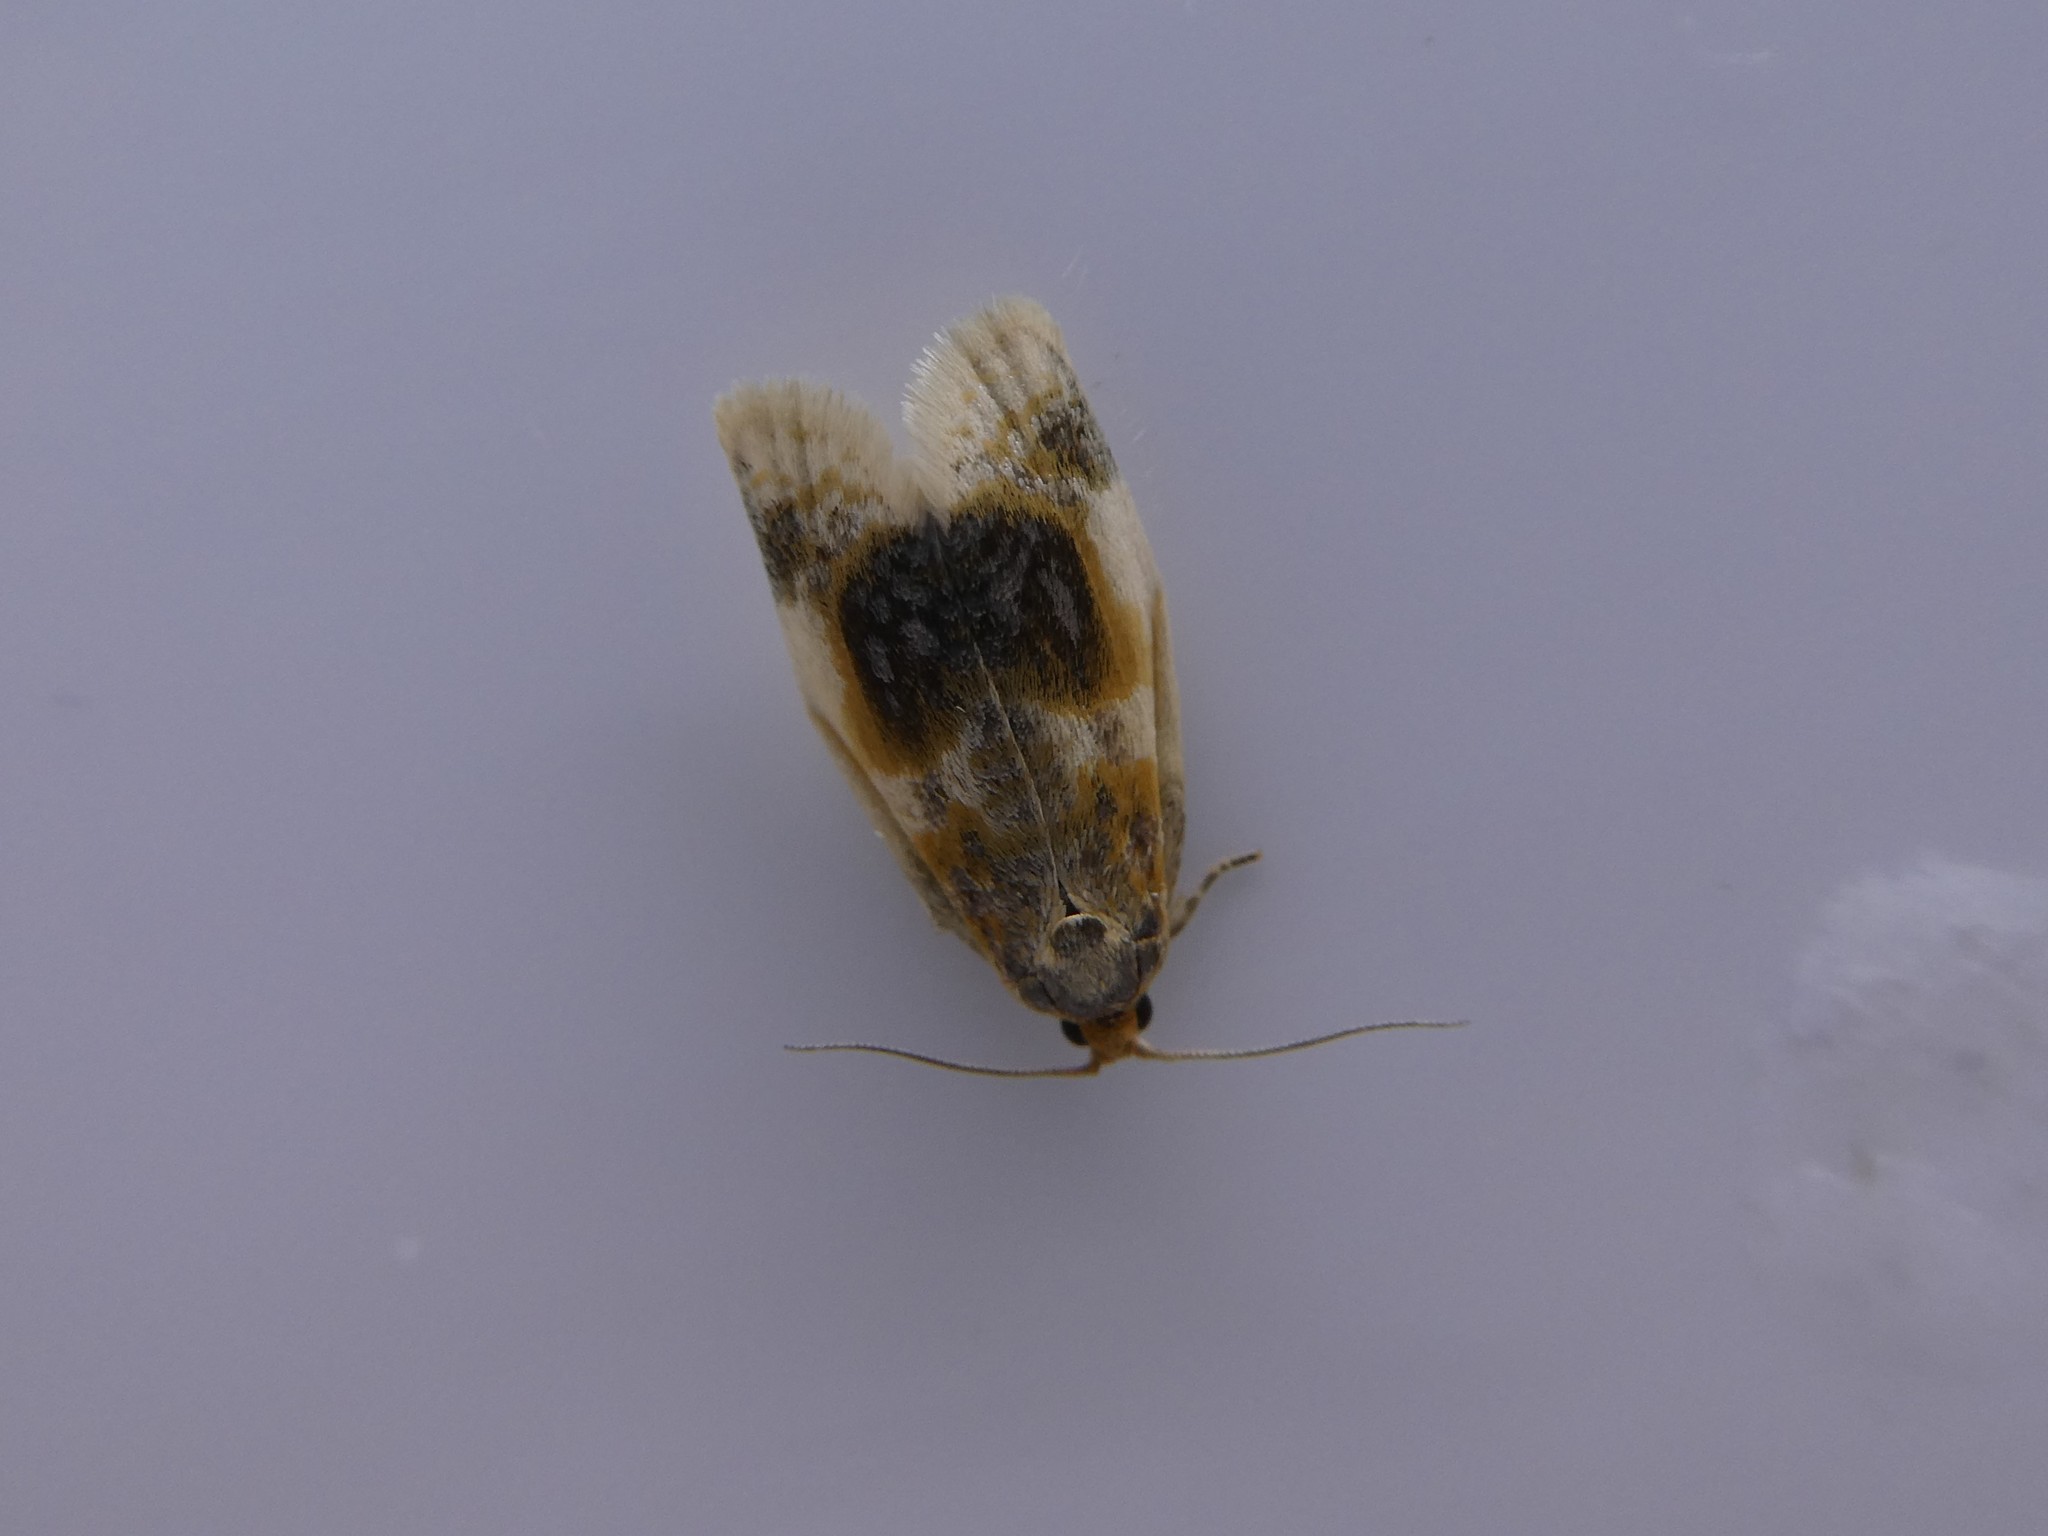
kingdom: Animalia
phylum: Arthropoda
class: Insecta
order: Lepidoptera
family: Tortricidae
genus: Clepsis
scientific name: Clepsis melaleucanus
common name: American apple tortrix
